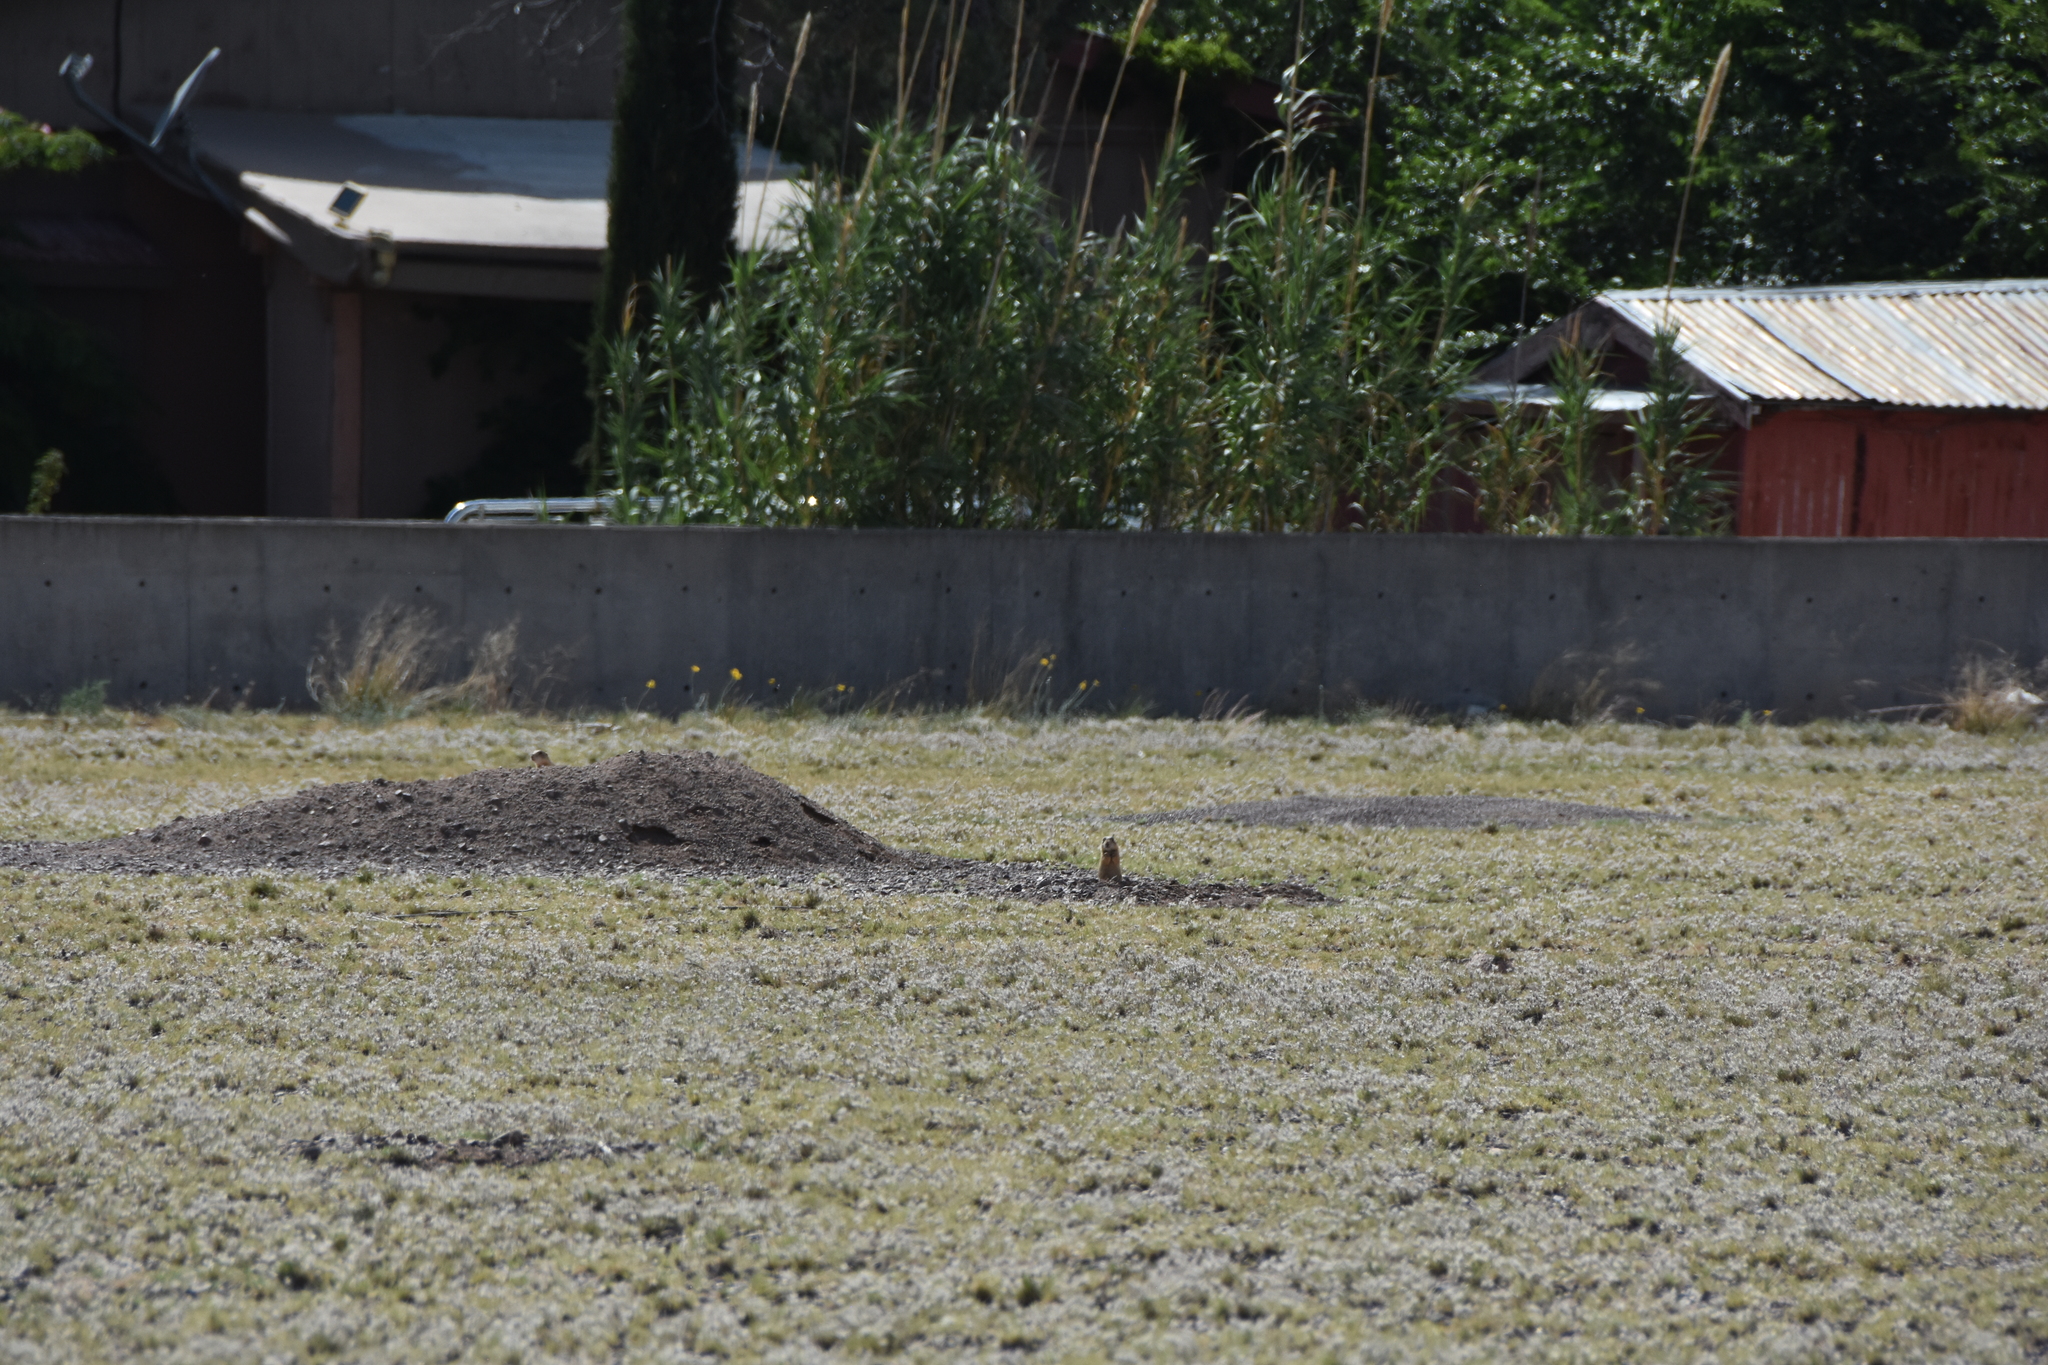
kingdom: Animalia
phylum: Chordata
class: Mammalia
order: Rodentia
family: Sciuridae
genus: Cynomys
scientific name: Cynomys gunnisoni
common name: Gunnison's prairie dog
